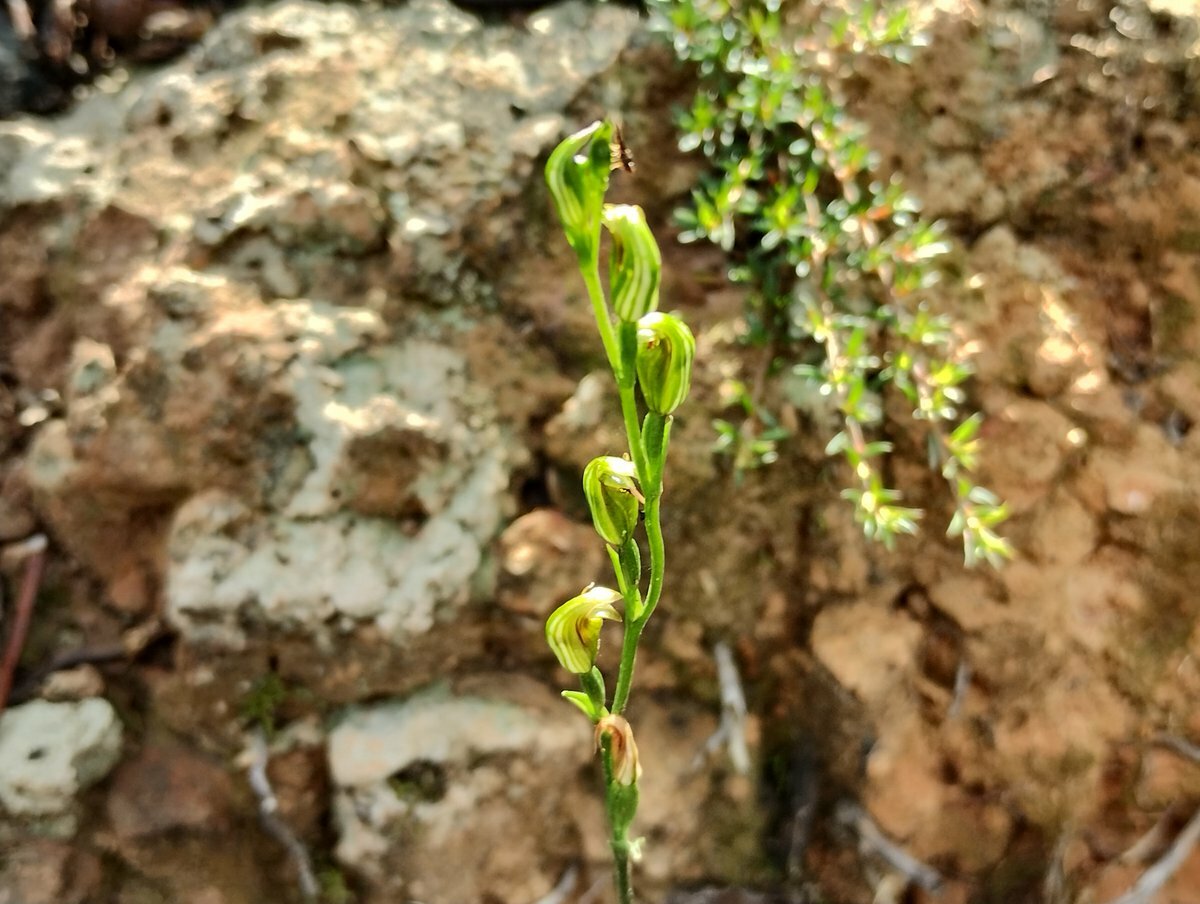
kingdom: Plantae
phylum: Tracheophyta
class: Liliopsida
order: Asparagales
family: Orchidaceae
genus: Pterostylis
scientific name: Pterostylis parviflora
